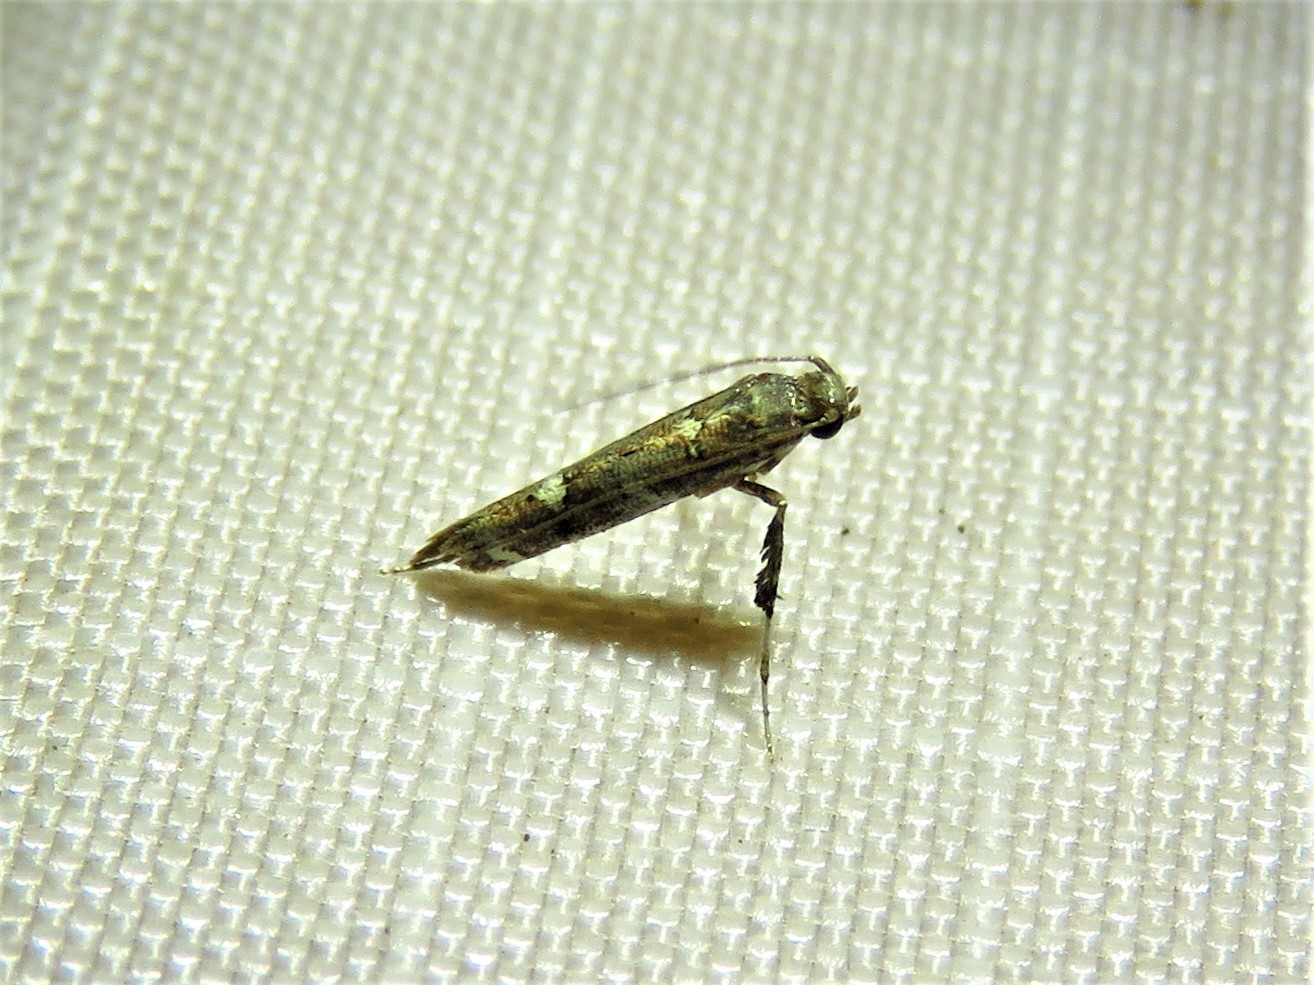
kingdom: Animalia
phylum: Arthropoda
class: Insecta
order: Lepidoptera
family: Gracillariidae
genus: Caloptilia
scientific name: Caloptilia triadicae
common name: Tallow leaf roller
